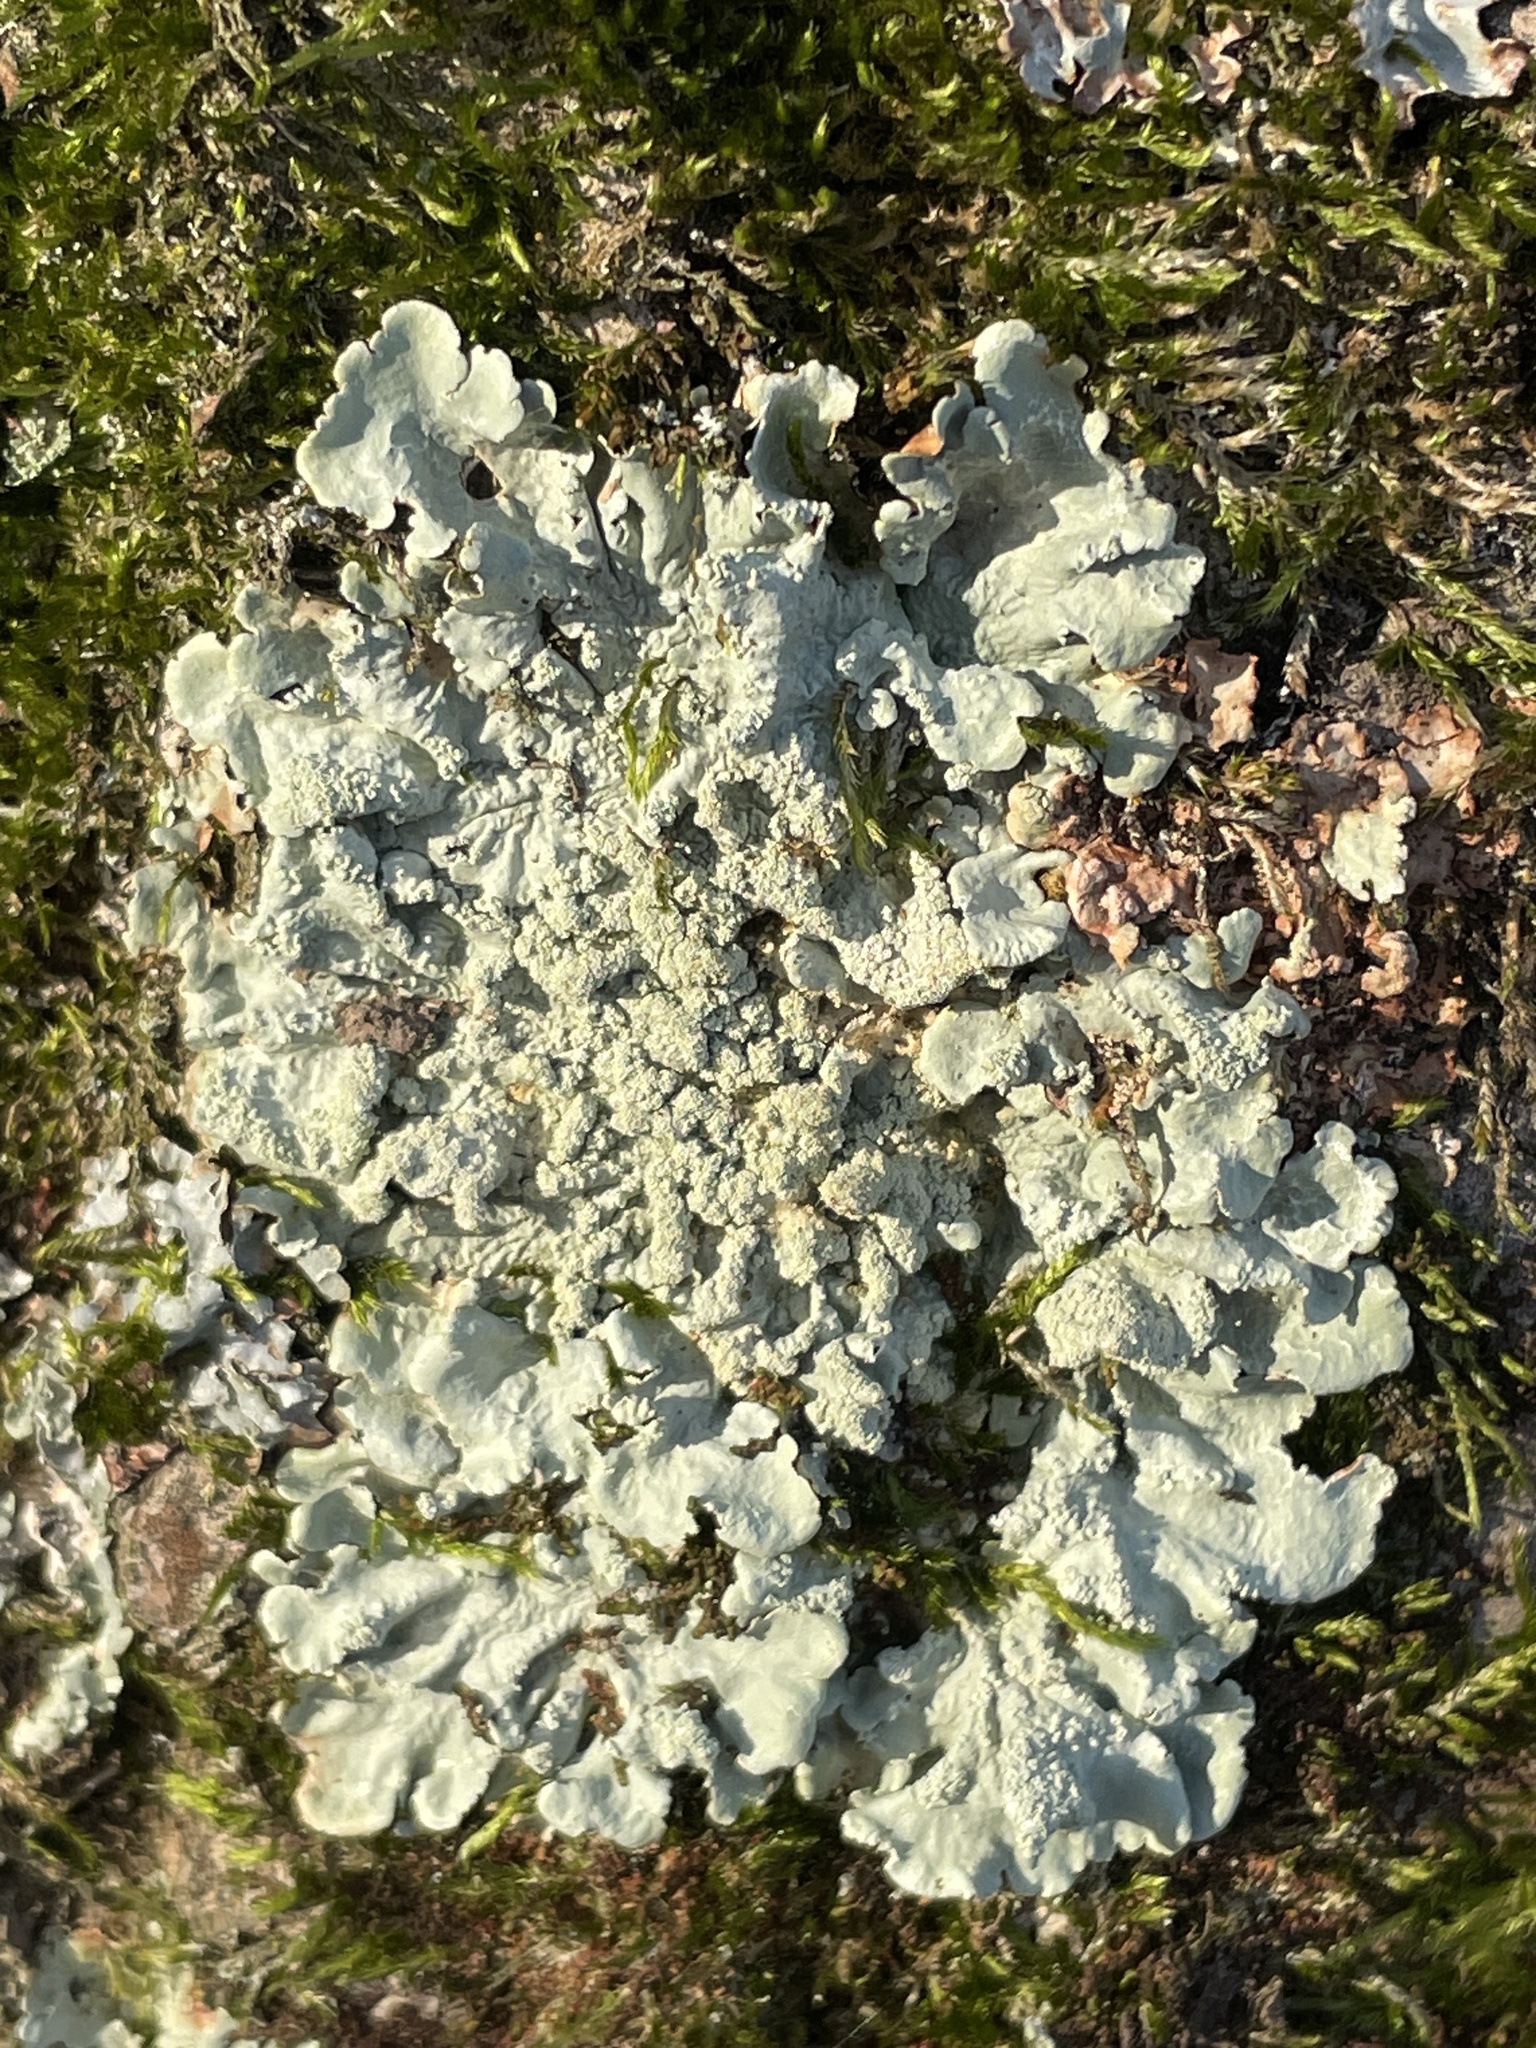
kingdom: Fungi
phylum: Ascomycota
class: Lecanoromycetes
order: Lecanorales
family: Parmeliaceae
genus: Flavoparmelia
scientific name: Flavoparmelia caperata
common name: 40-mile per hour lichen
